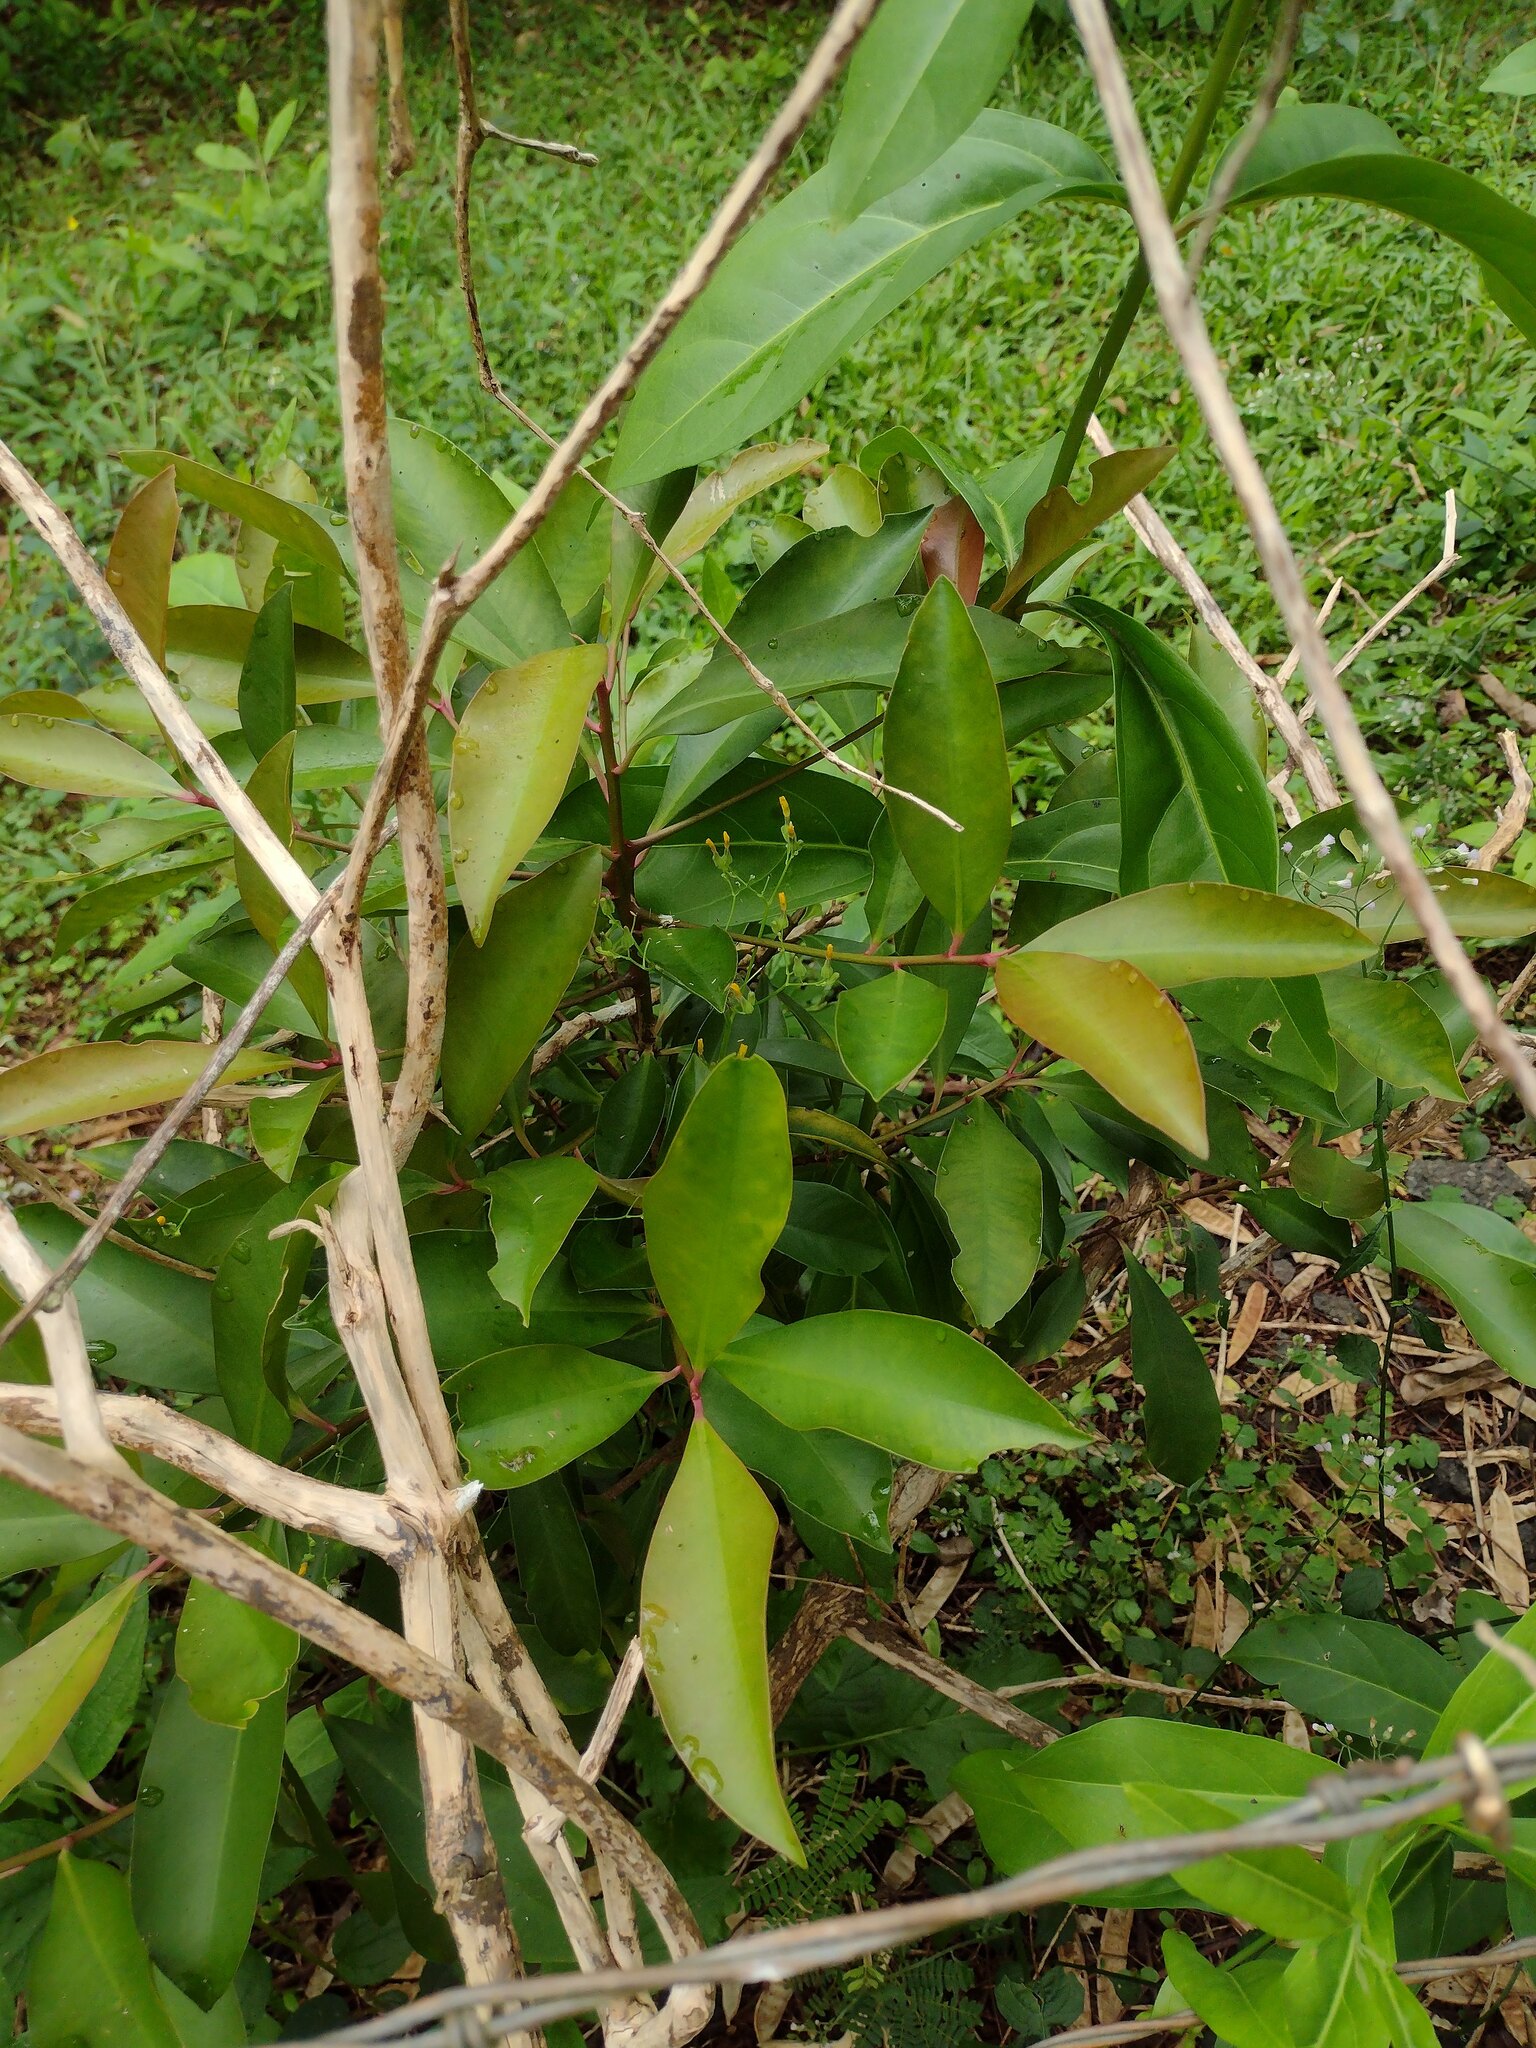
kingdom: Plantae
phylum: Tracheophyta
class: Magnoliopsida
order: Ericales
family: Primulaceae
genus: Ardisia
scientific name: Ardisia elliptica
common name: Shoebutton
